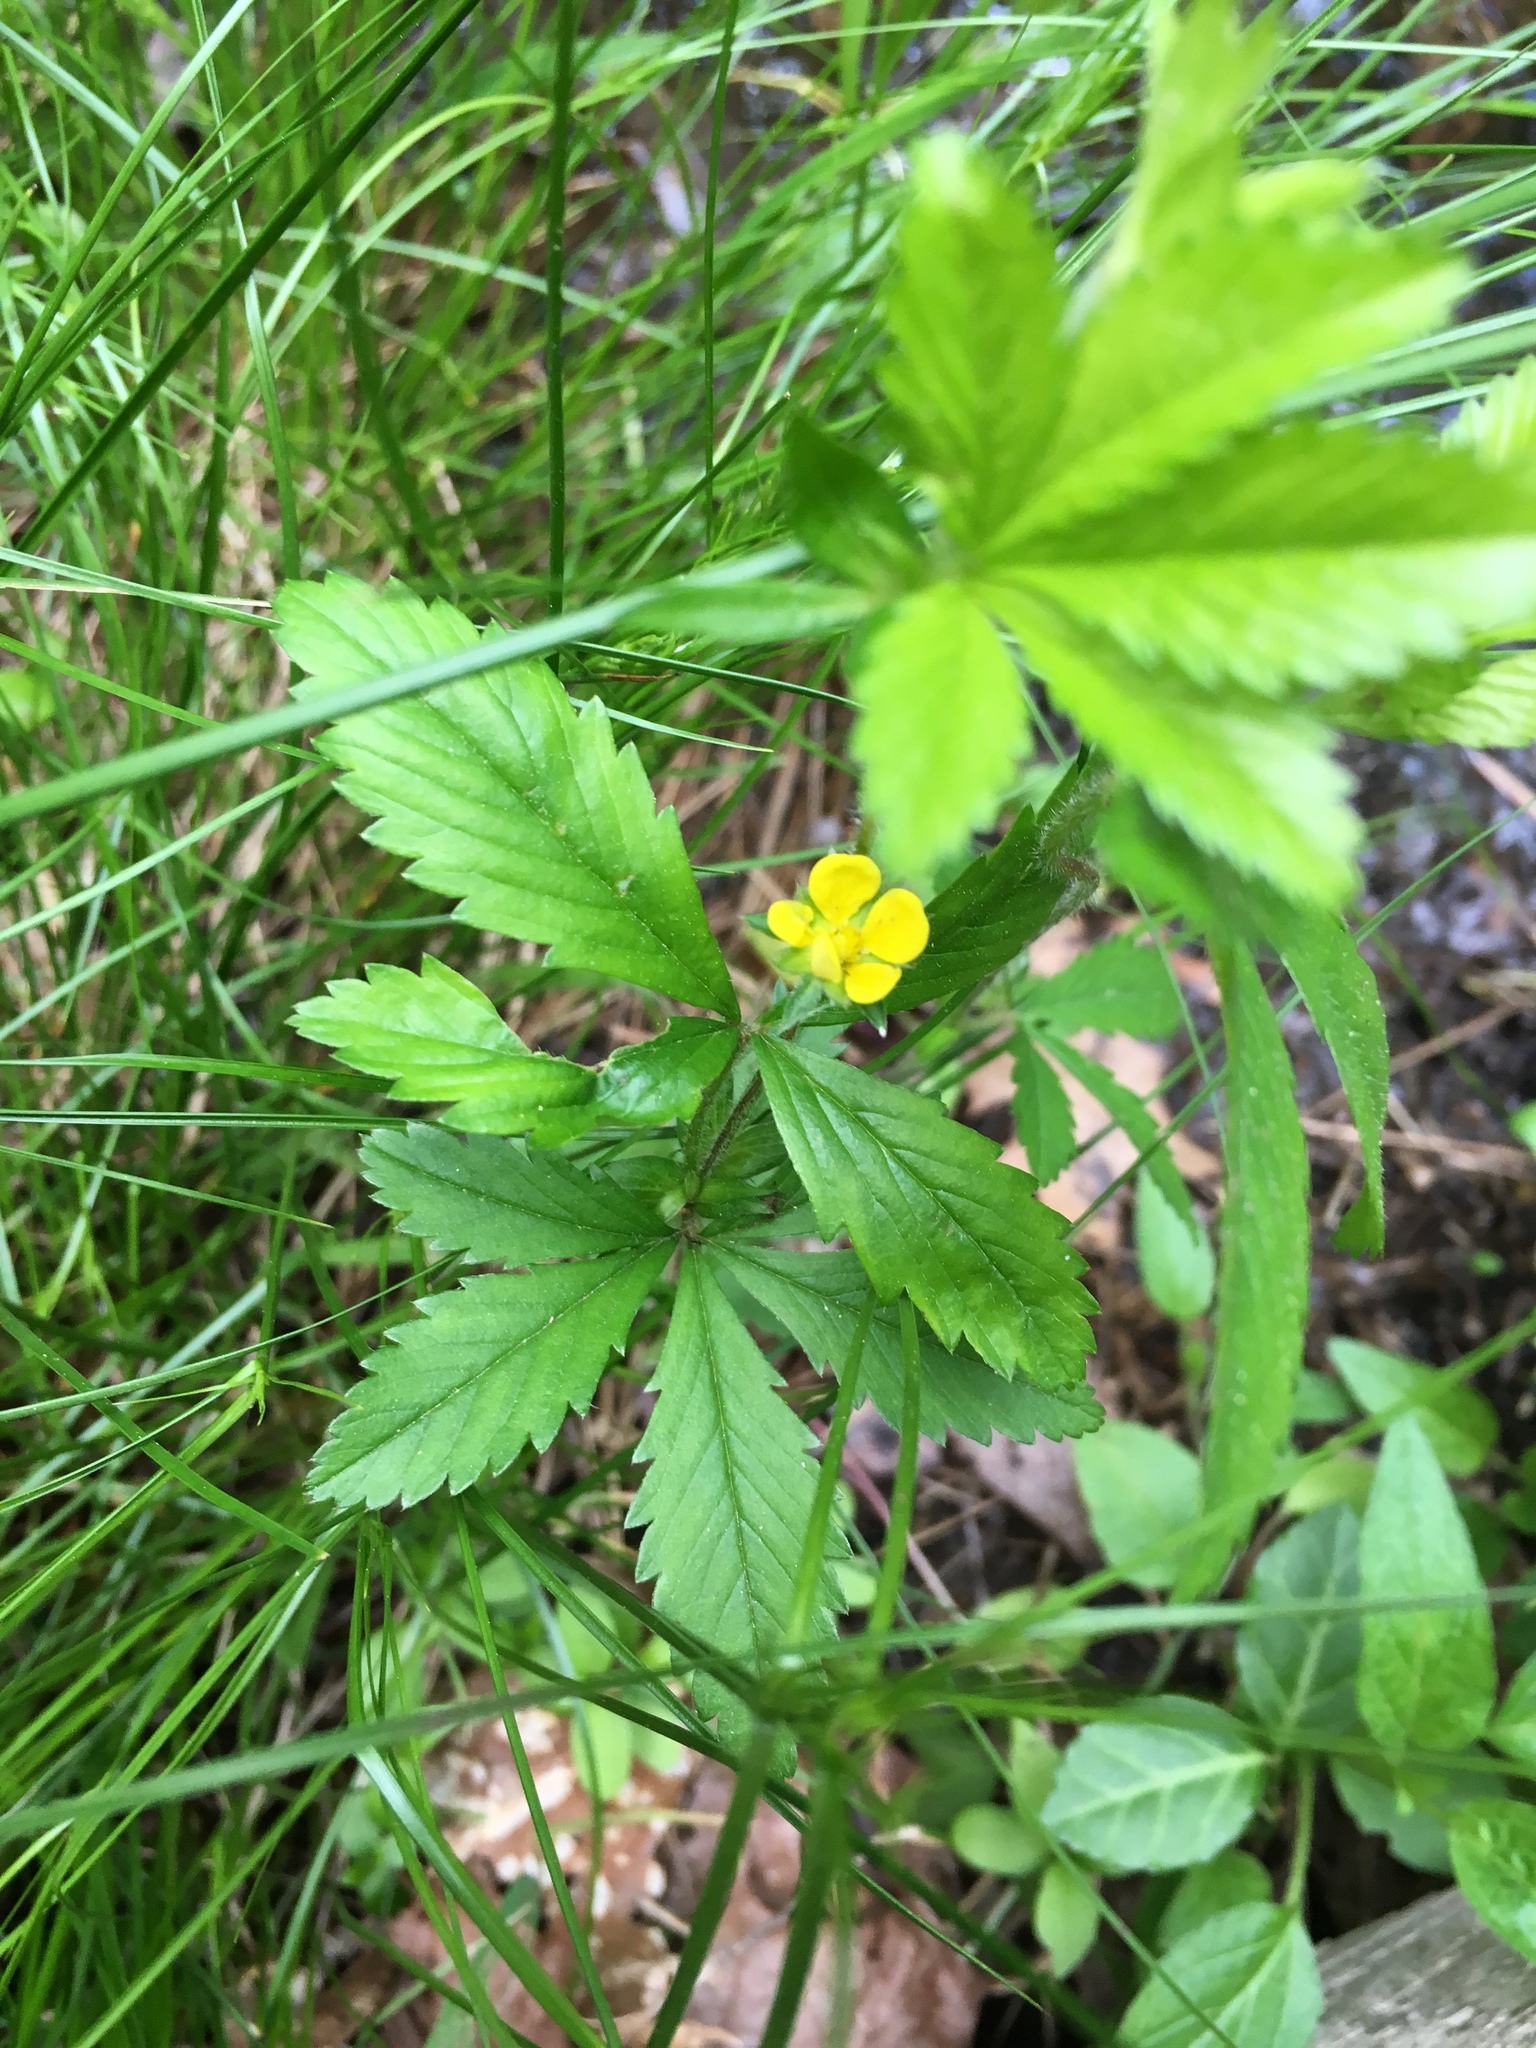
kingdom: Plantae
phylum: Tracheophyta
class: Magnoliopsida
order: Rosales
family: Rosaceae
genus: Potentilla
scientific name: Potentilla simplex
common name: Old field cinquefoil
